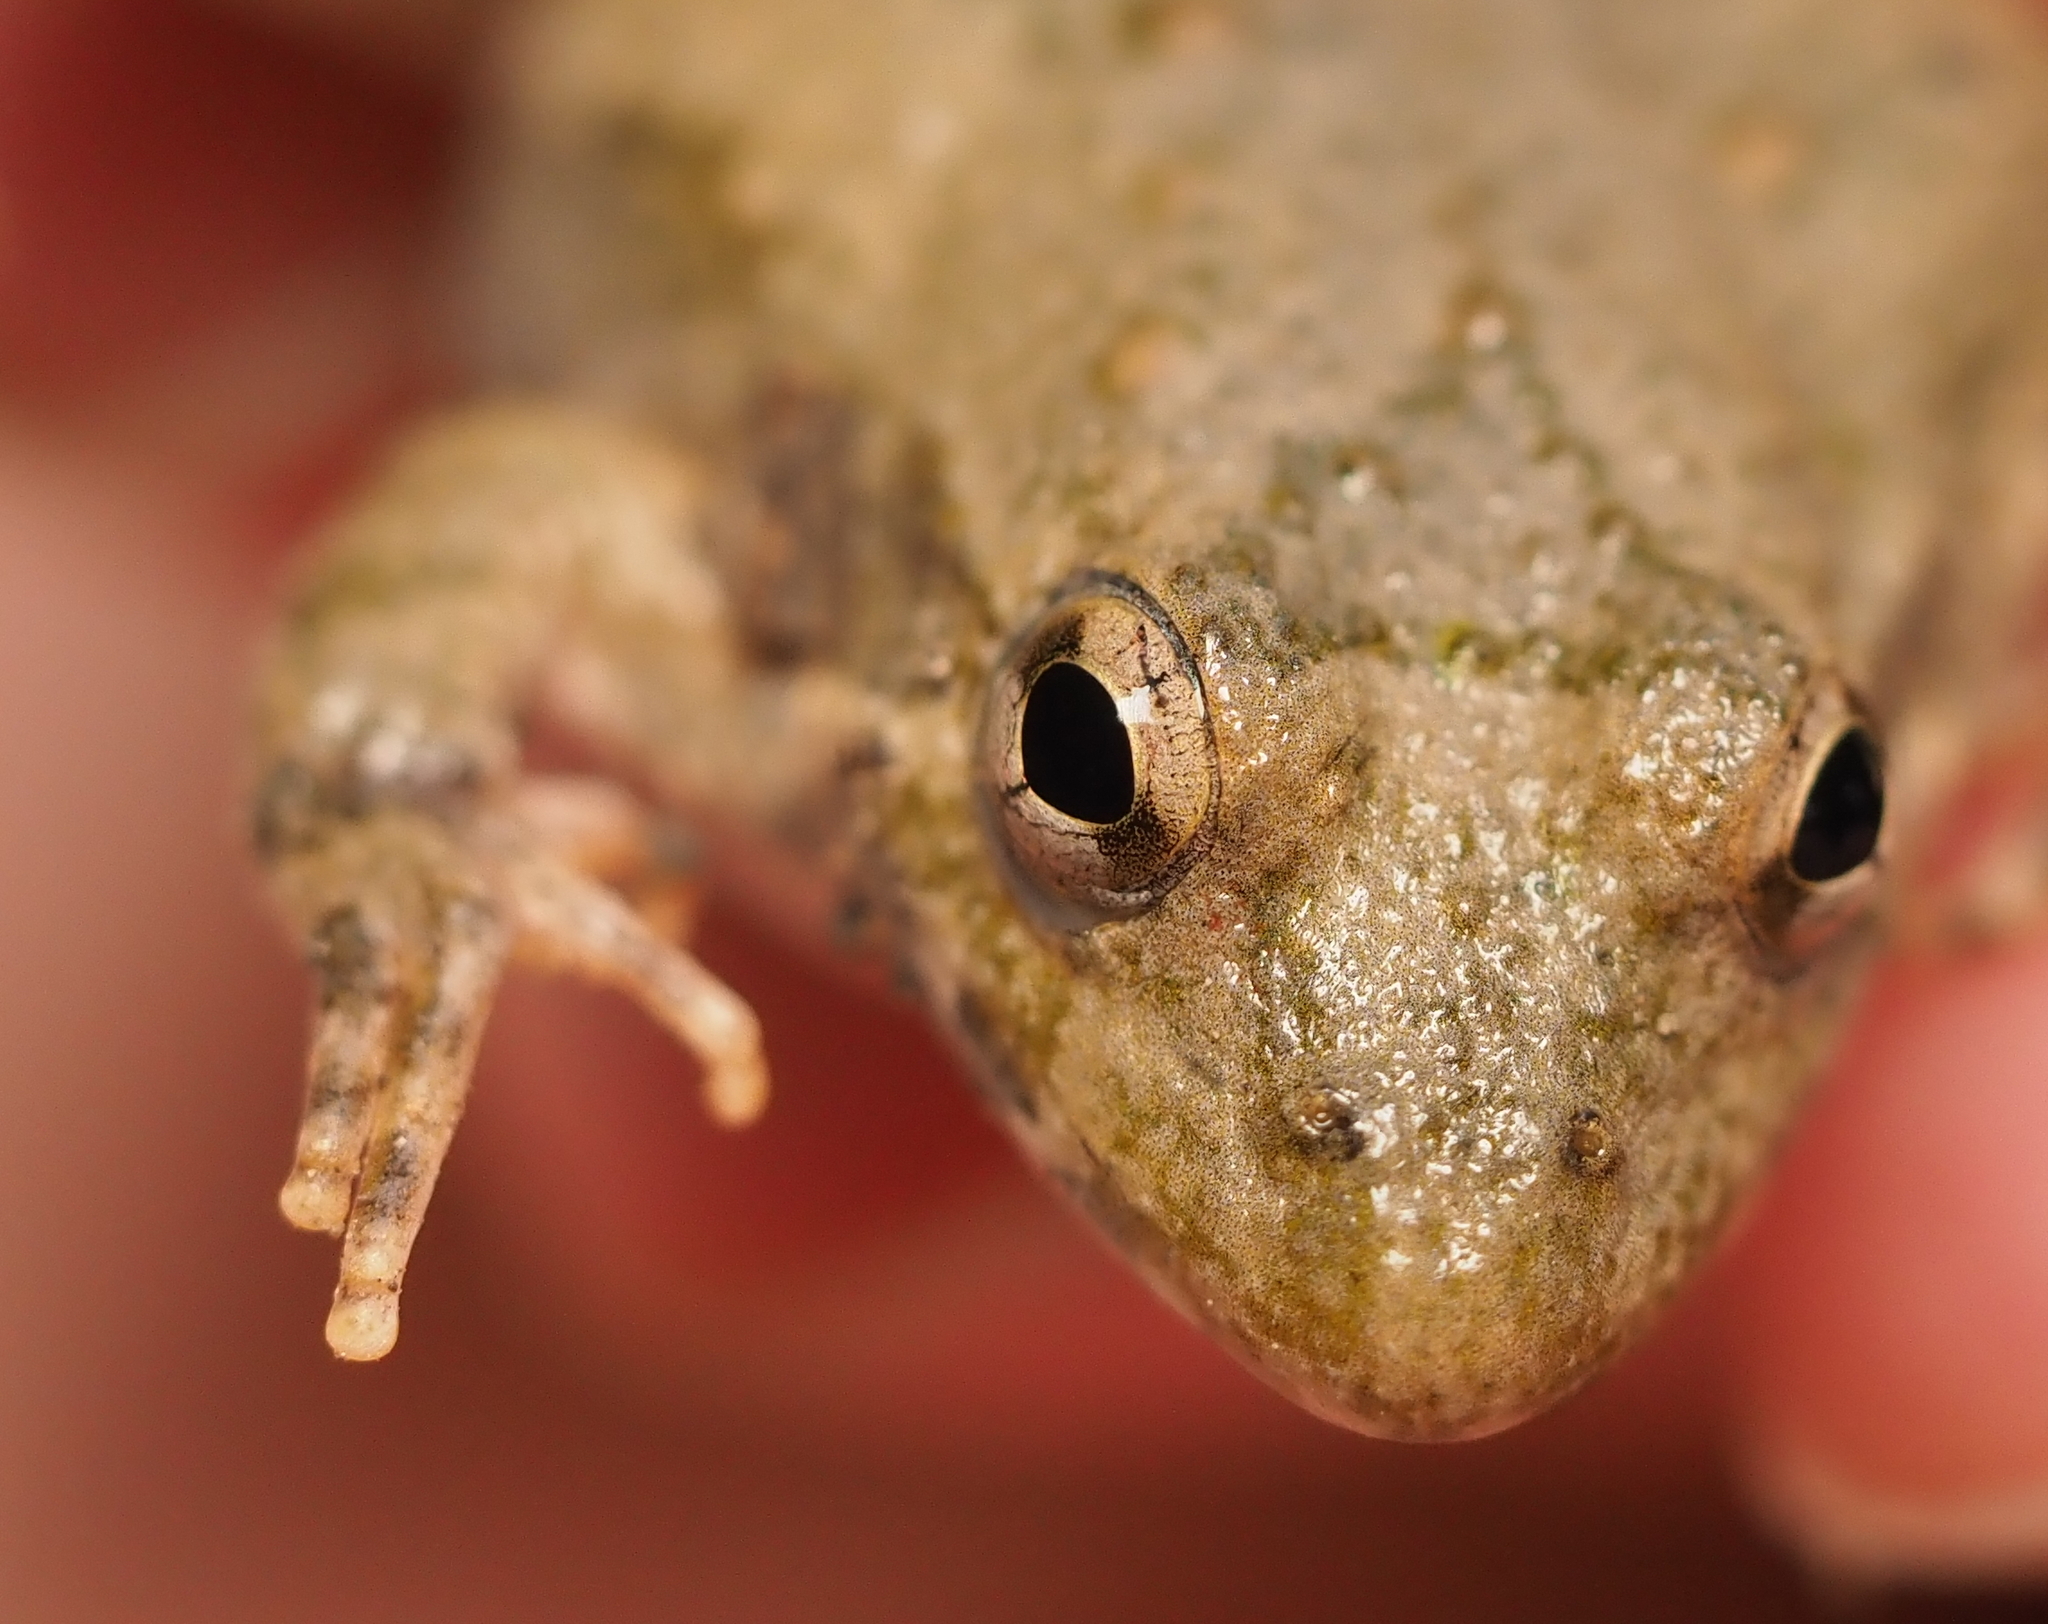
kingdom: Animalia
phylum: Chordata
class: Amphibia
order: Anura
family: Hylidae
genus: Acris
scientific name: Acris blanchardi
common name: Blanchard's cricket frog
